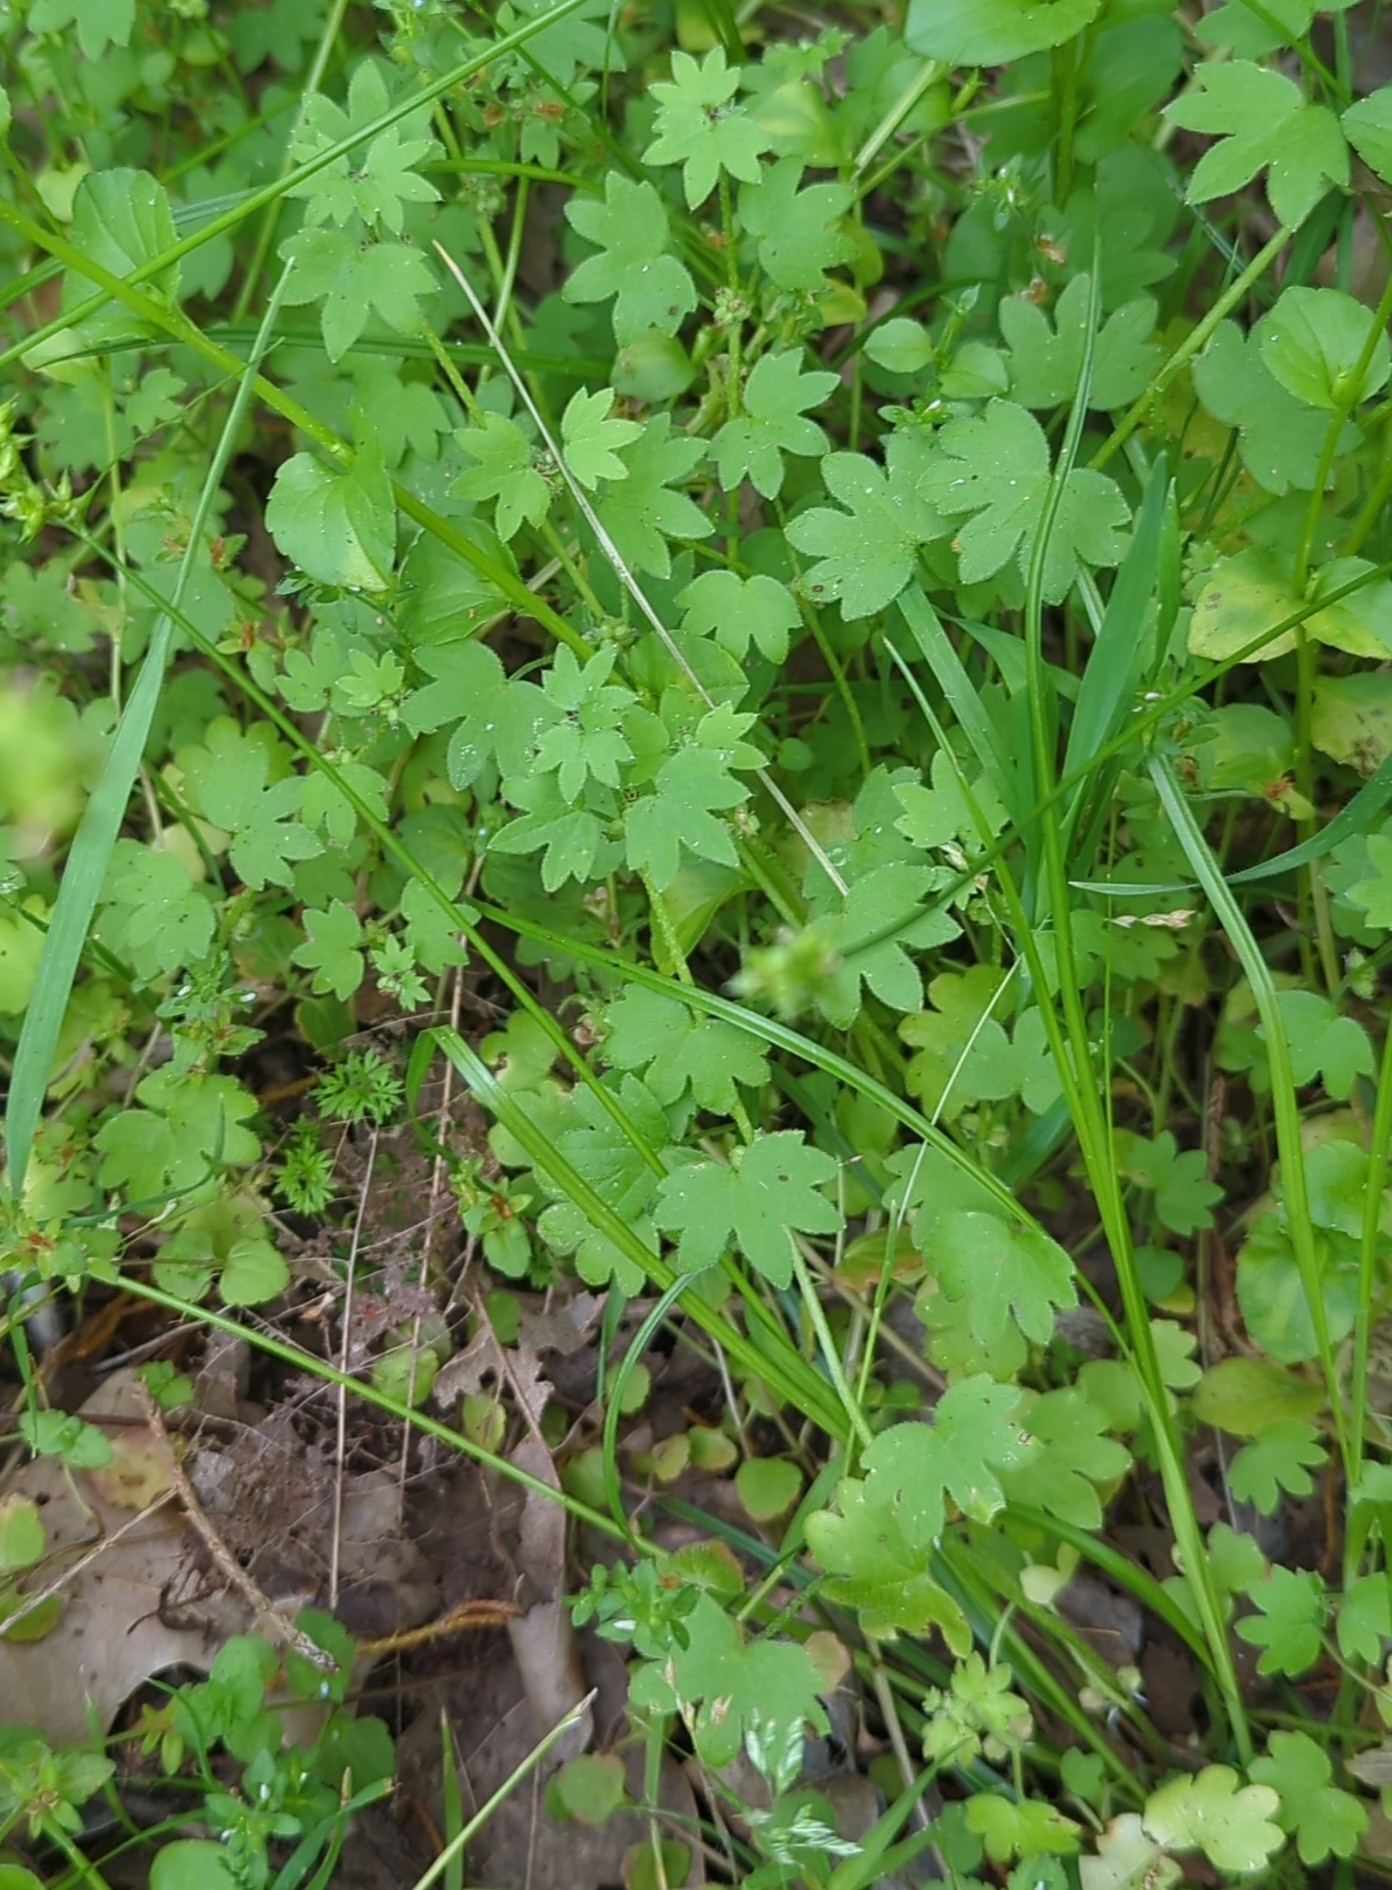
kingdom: Plantae
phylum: Tracheophyta
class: Magnoliopsida
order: Apiales
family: Apiaceae
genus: Bowlesia
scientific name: Bowlesia incana
